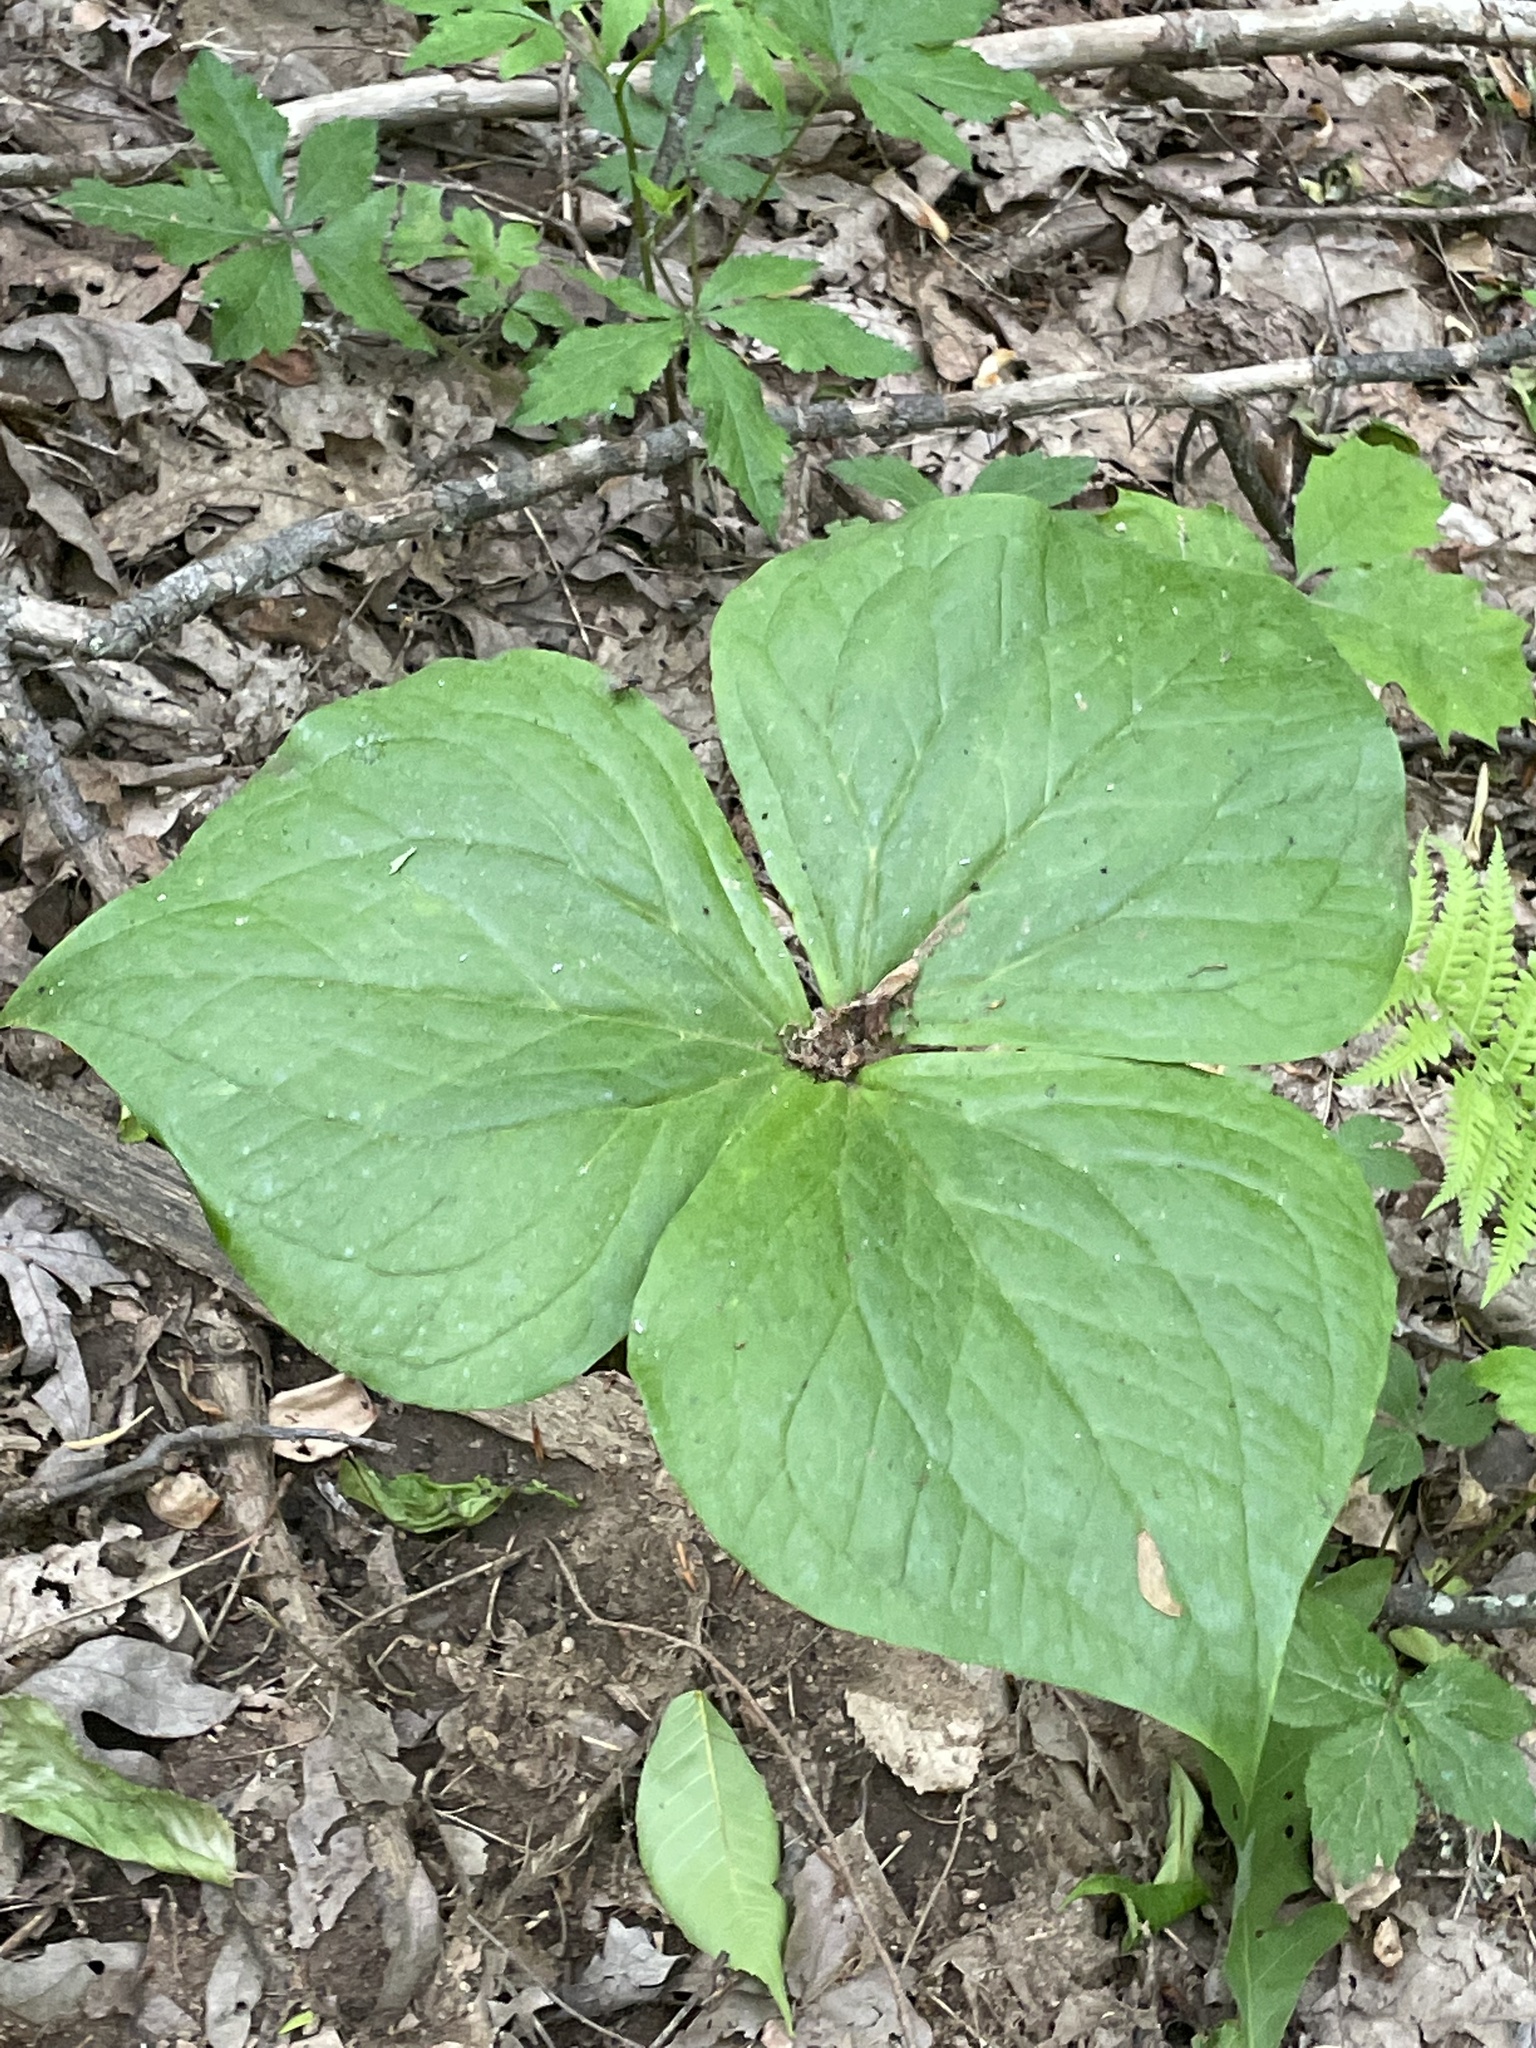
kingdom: Plantae
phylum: Tracheophyta
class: Liliopsida
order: Liliales
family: Melanthiaceae
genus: Trillium
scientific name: Trillium vaseyi
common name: Sweet trillium
